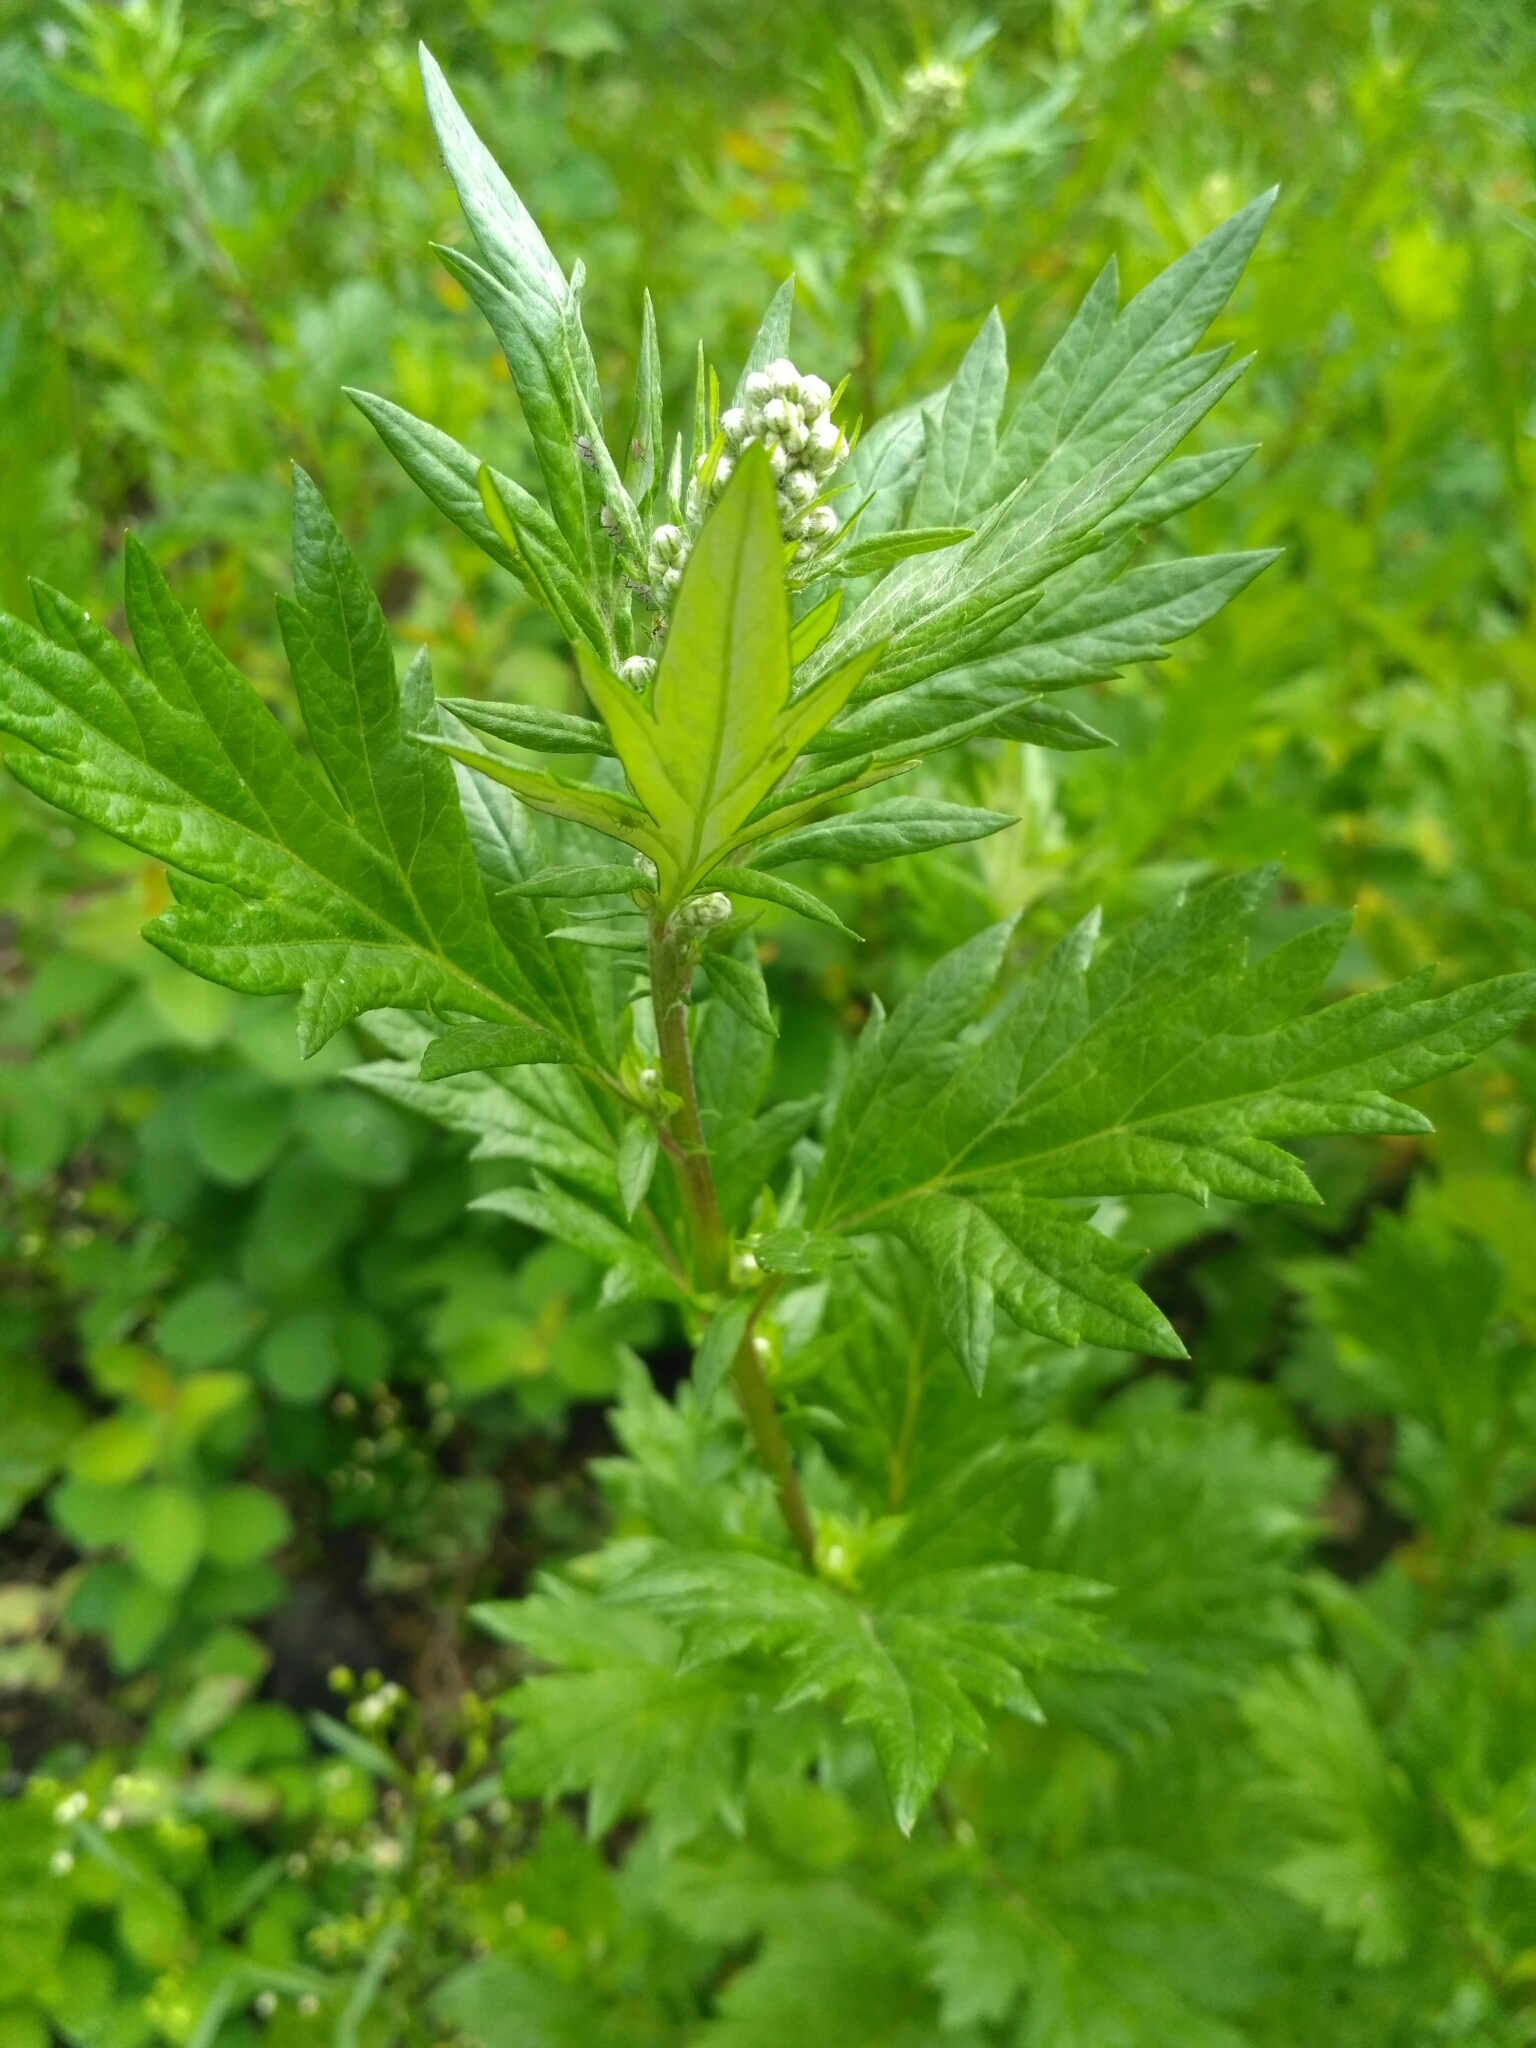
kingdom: Plantae
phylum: Tracheophyta
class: Magnoliopsida
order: Asterales
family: Asteraceae
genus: Artemisia
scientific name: Artemisia vulgaris
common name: Mugwort
